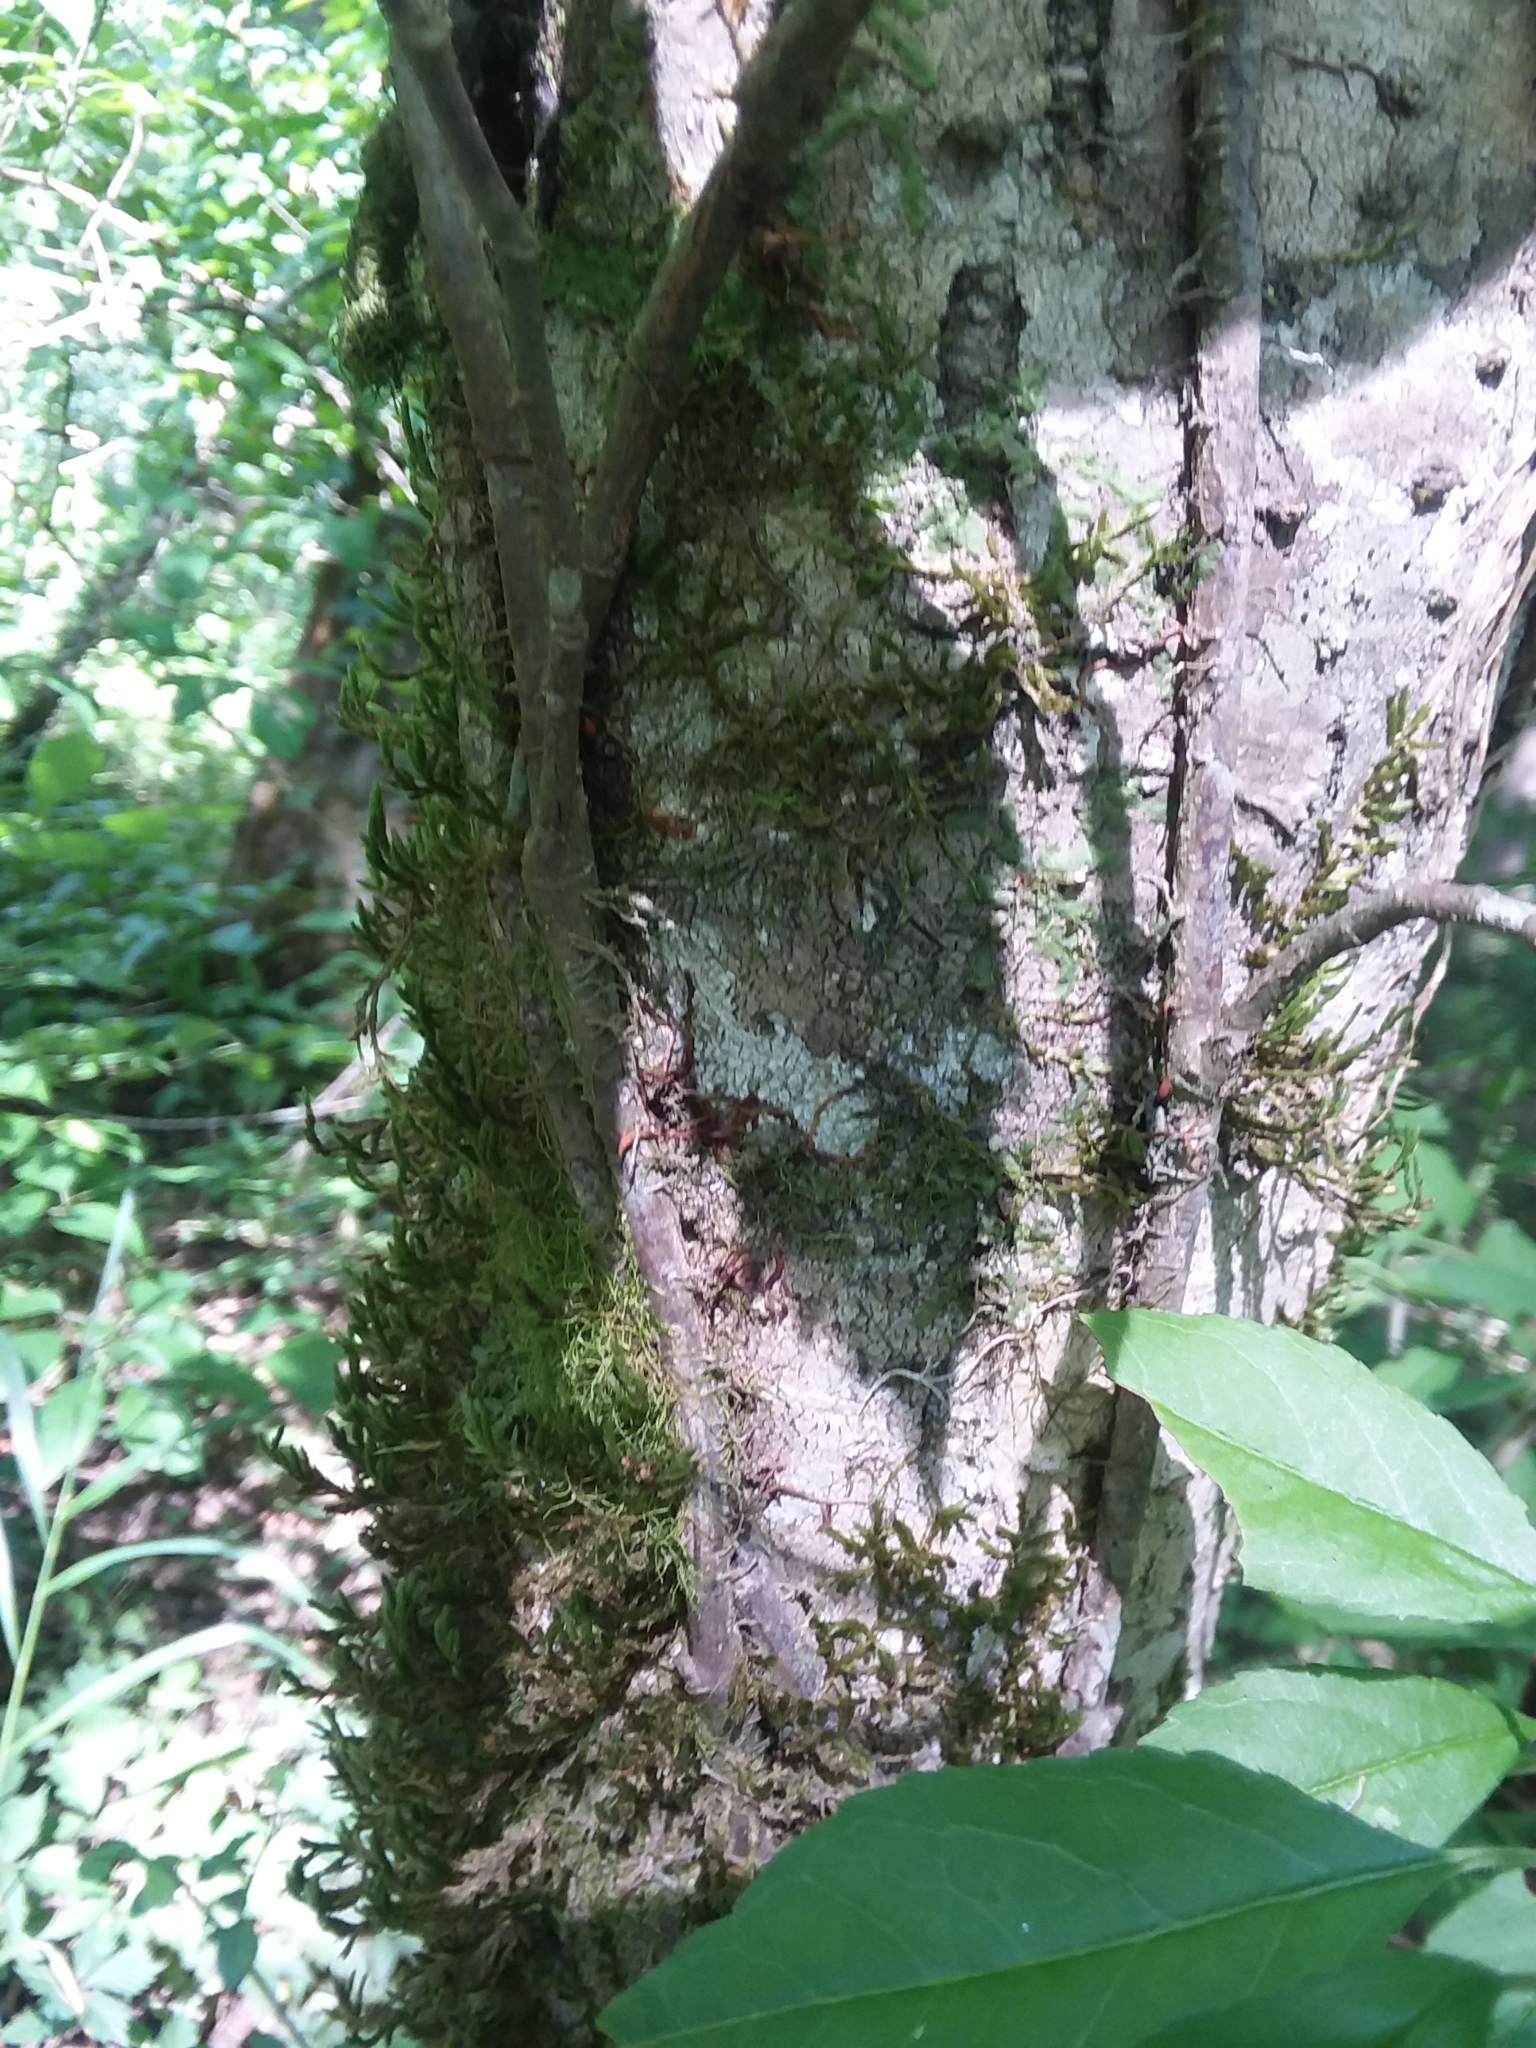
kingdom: Plantae
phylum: Tracheophyta
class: Magnoliopsida
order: Sapindales
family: Anacardiaceae
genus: Toxicodendron
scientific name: Toxicodendron radicans
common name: Poison ivy
